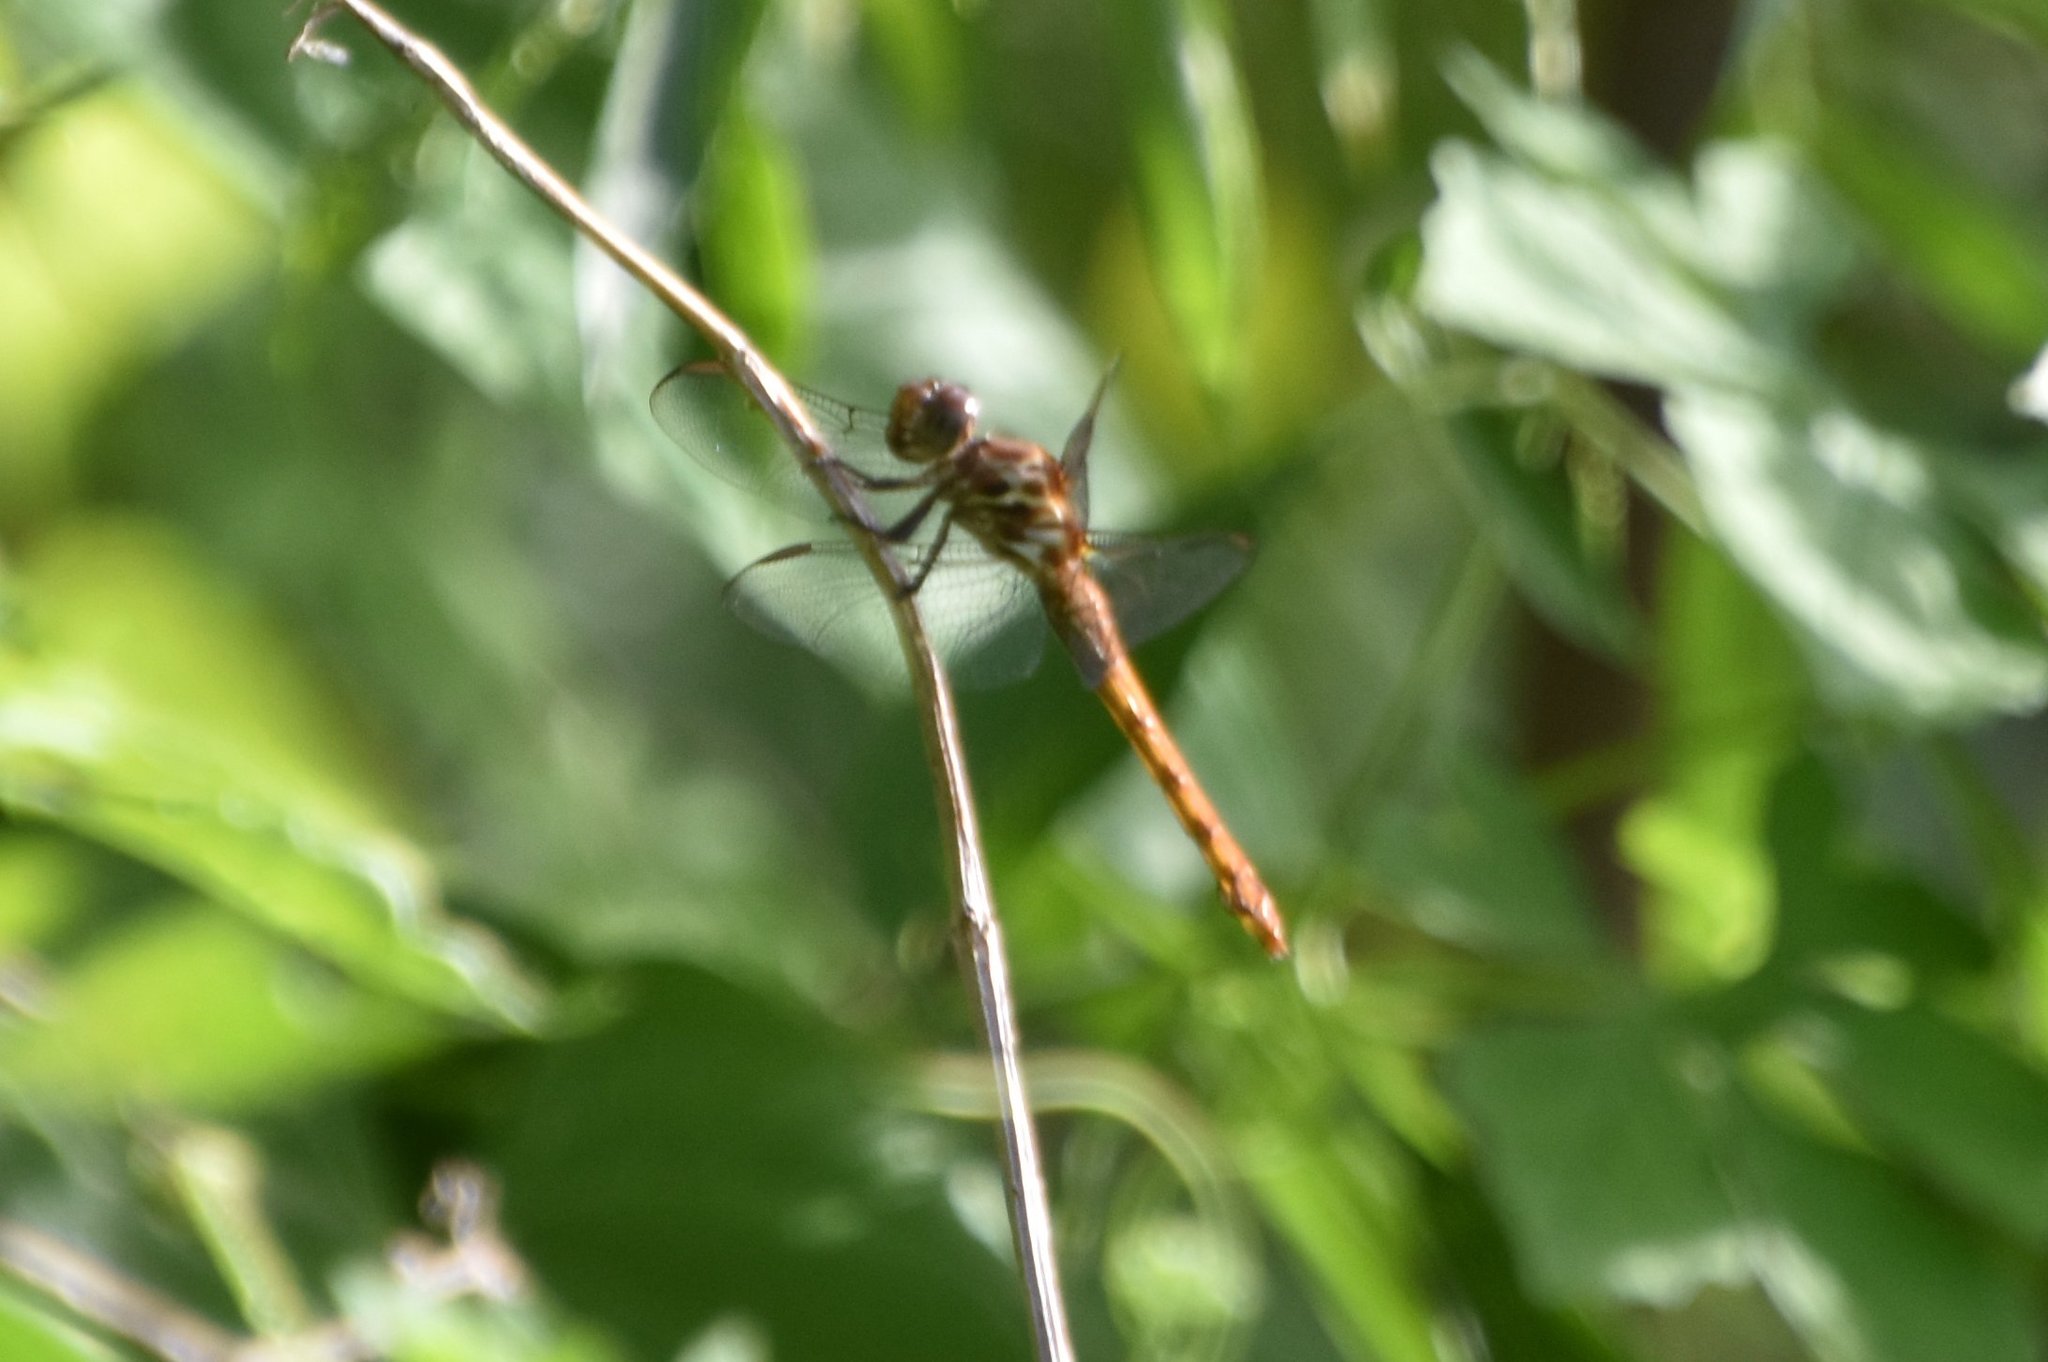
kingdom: Animalia
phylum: Arthropoda
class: Insecta
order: Odonata
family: Libellulidae
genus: Orthemis
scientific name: Orthemis ferruginea
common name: Roseate skimmer
